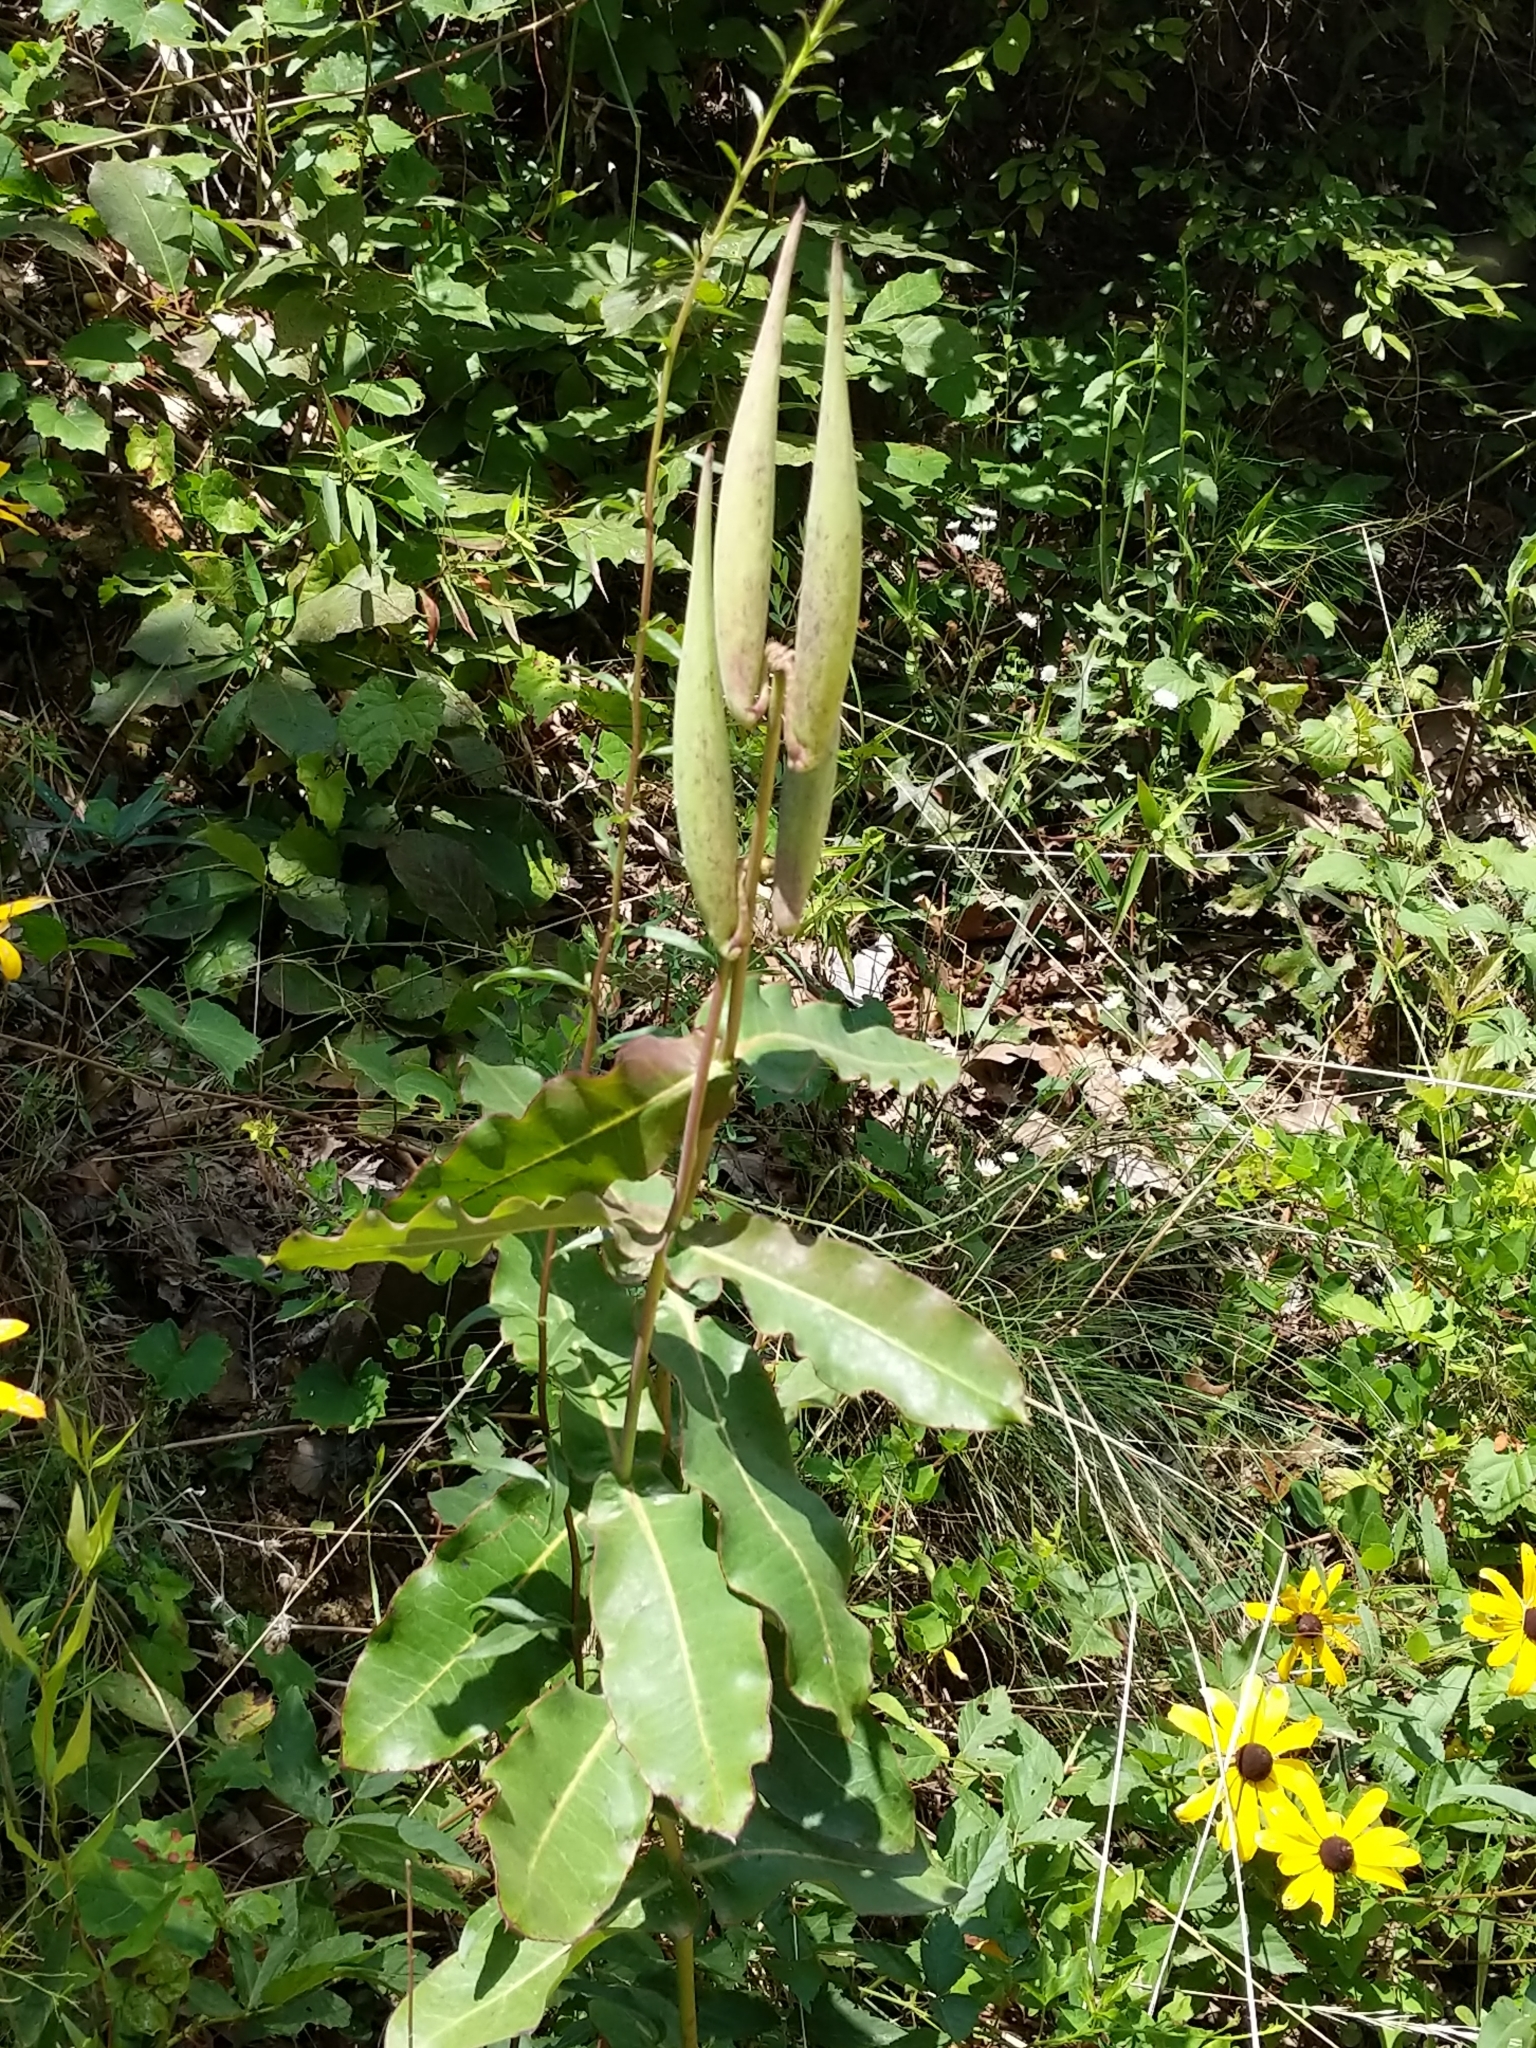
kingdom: Plantae
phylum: Tracheophyta
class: Magnoliopsida
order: Gentianales
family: Apocynaceae
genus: Asclepias
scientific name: Asclepias amplexicaulis
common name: Blunt-leaf milkweed
